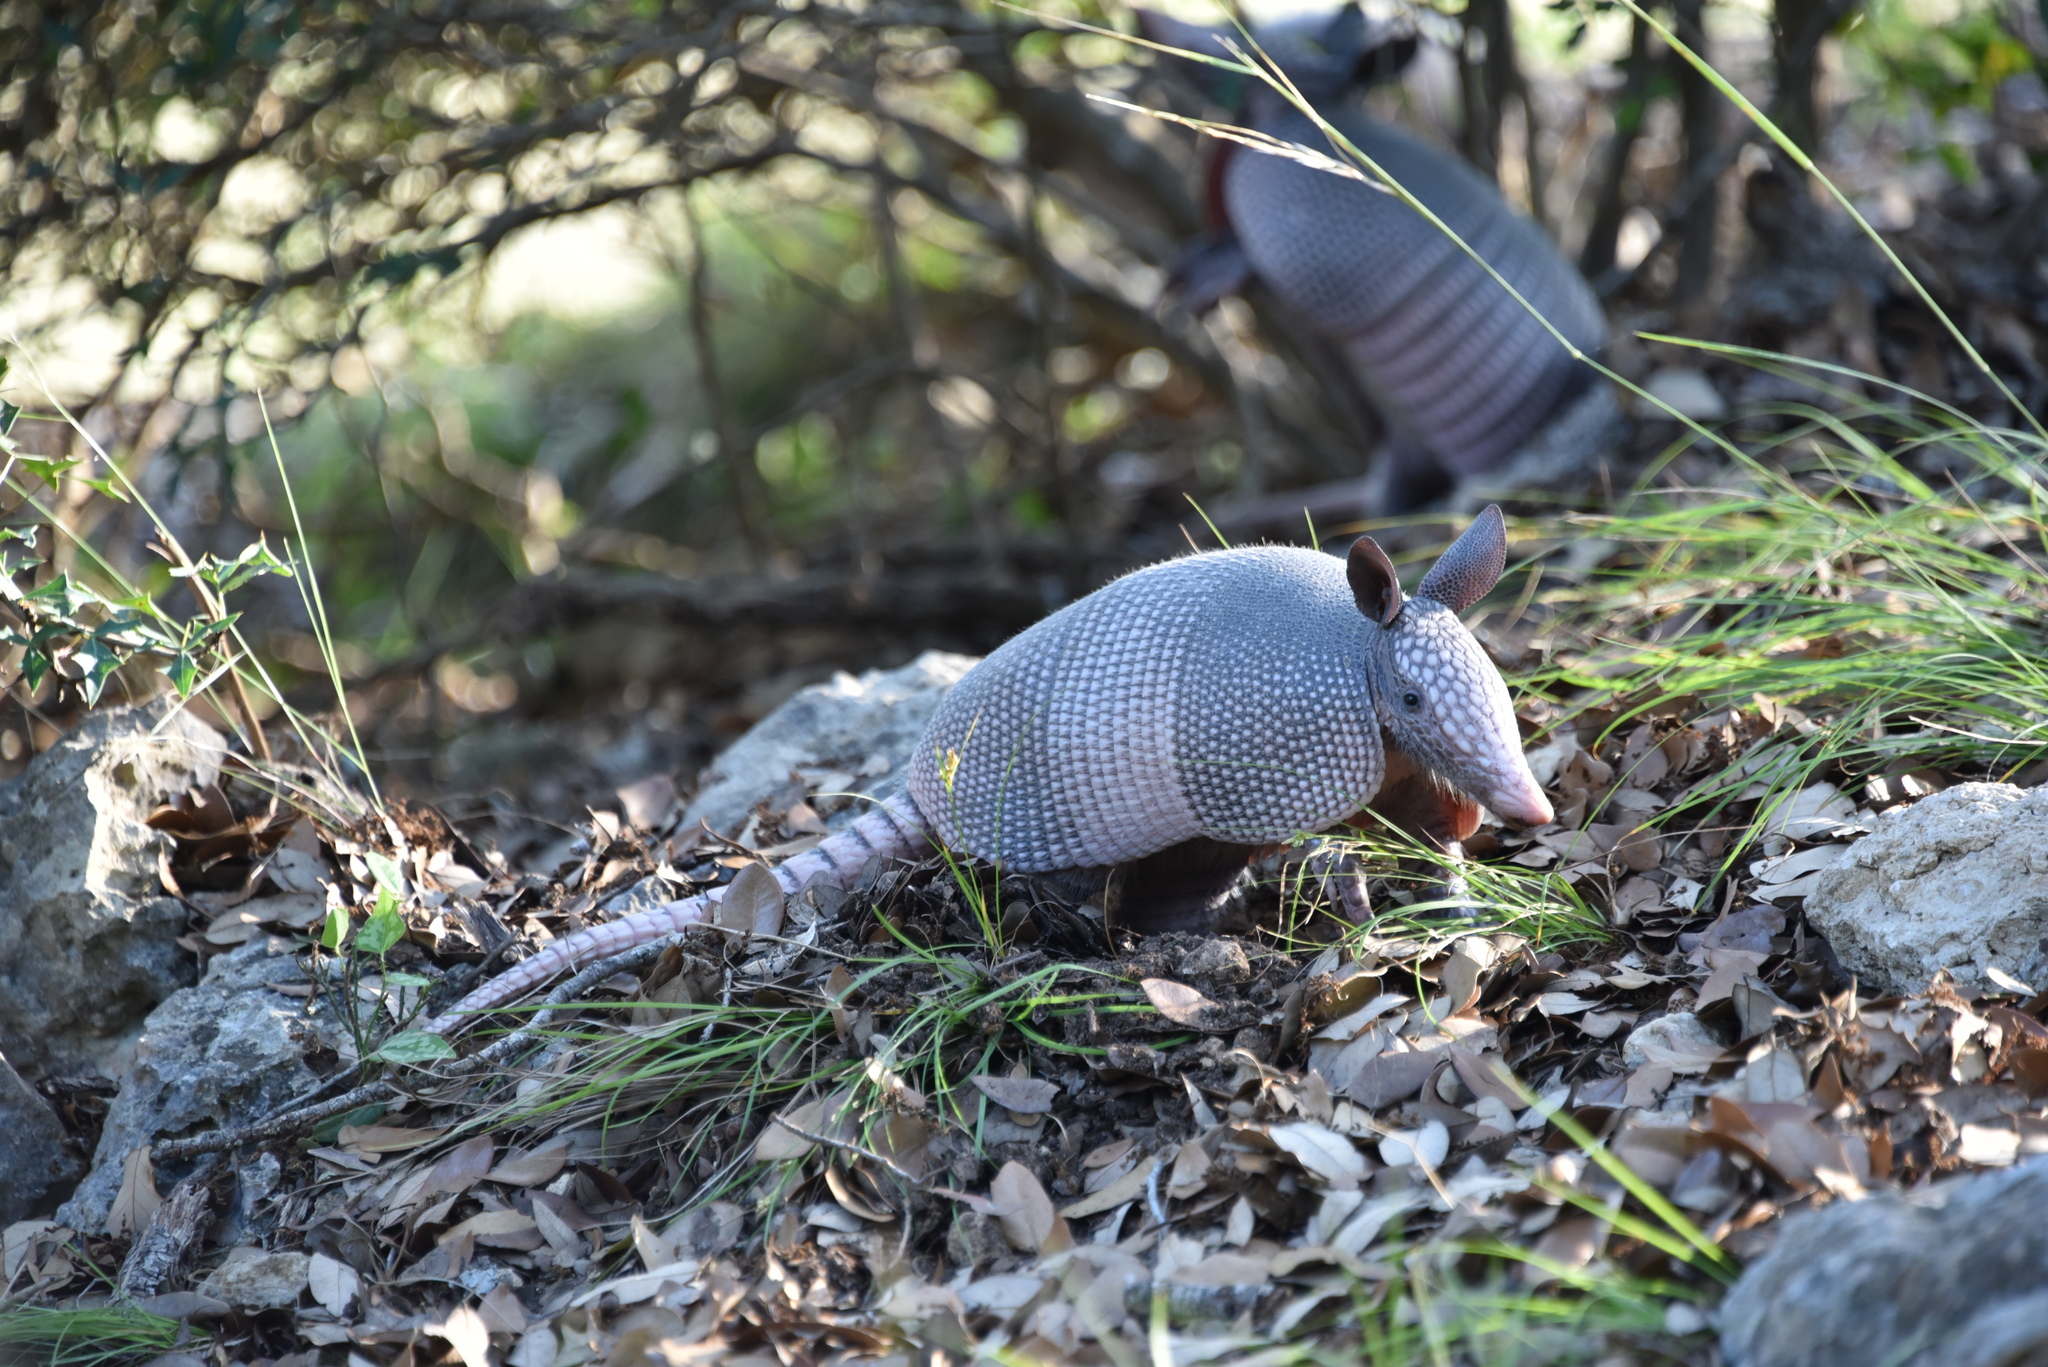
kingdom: Animalia
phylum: Chordata
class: Mammalia
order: Cingulata
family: Dasypodidae
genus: Dasypus
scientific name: Dasypus novemcinctus
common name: Nine-banded armadillo
